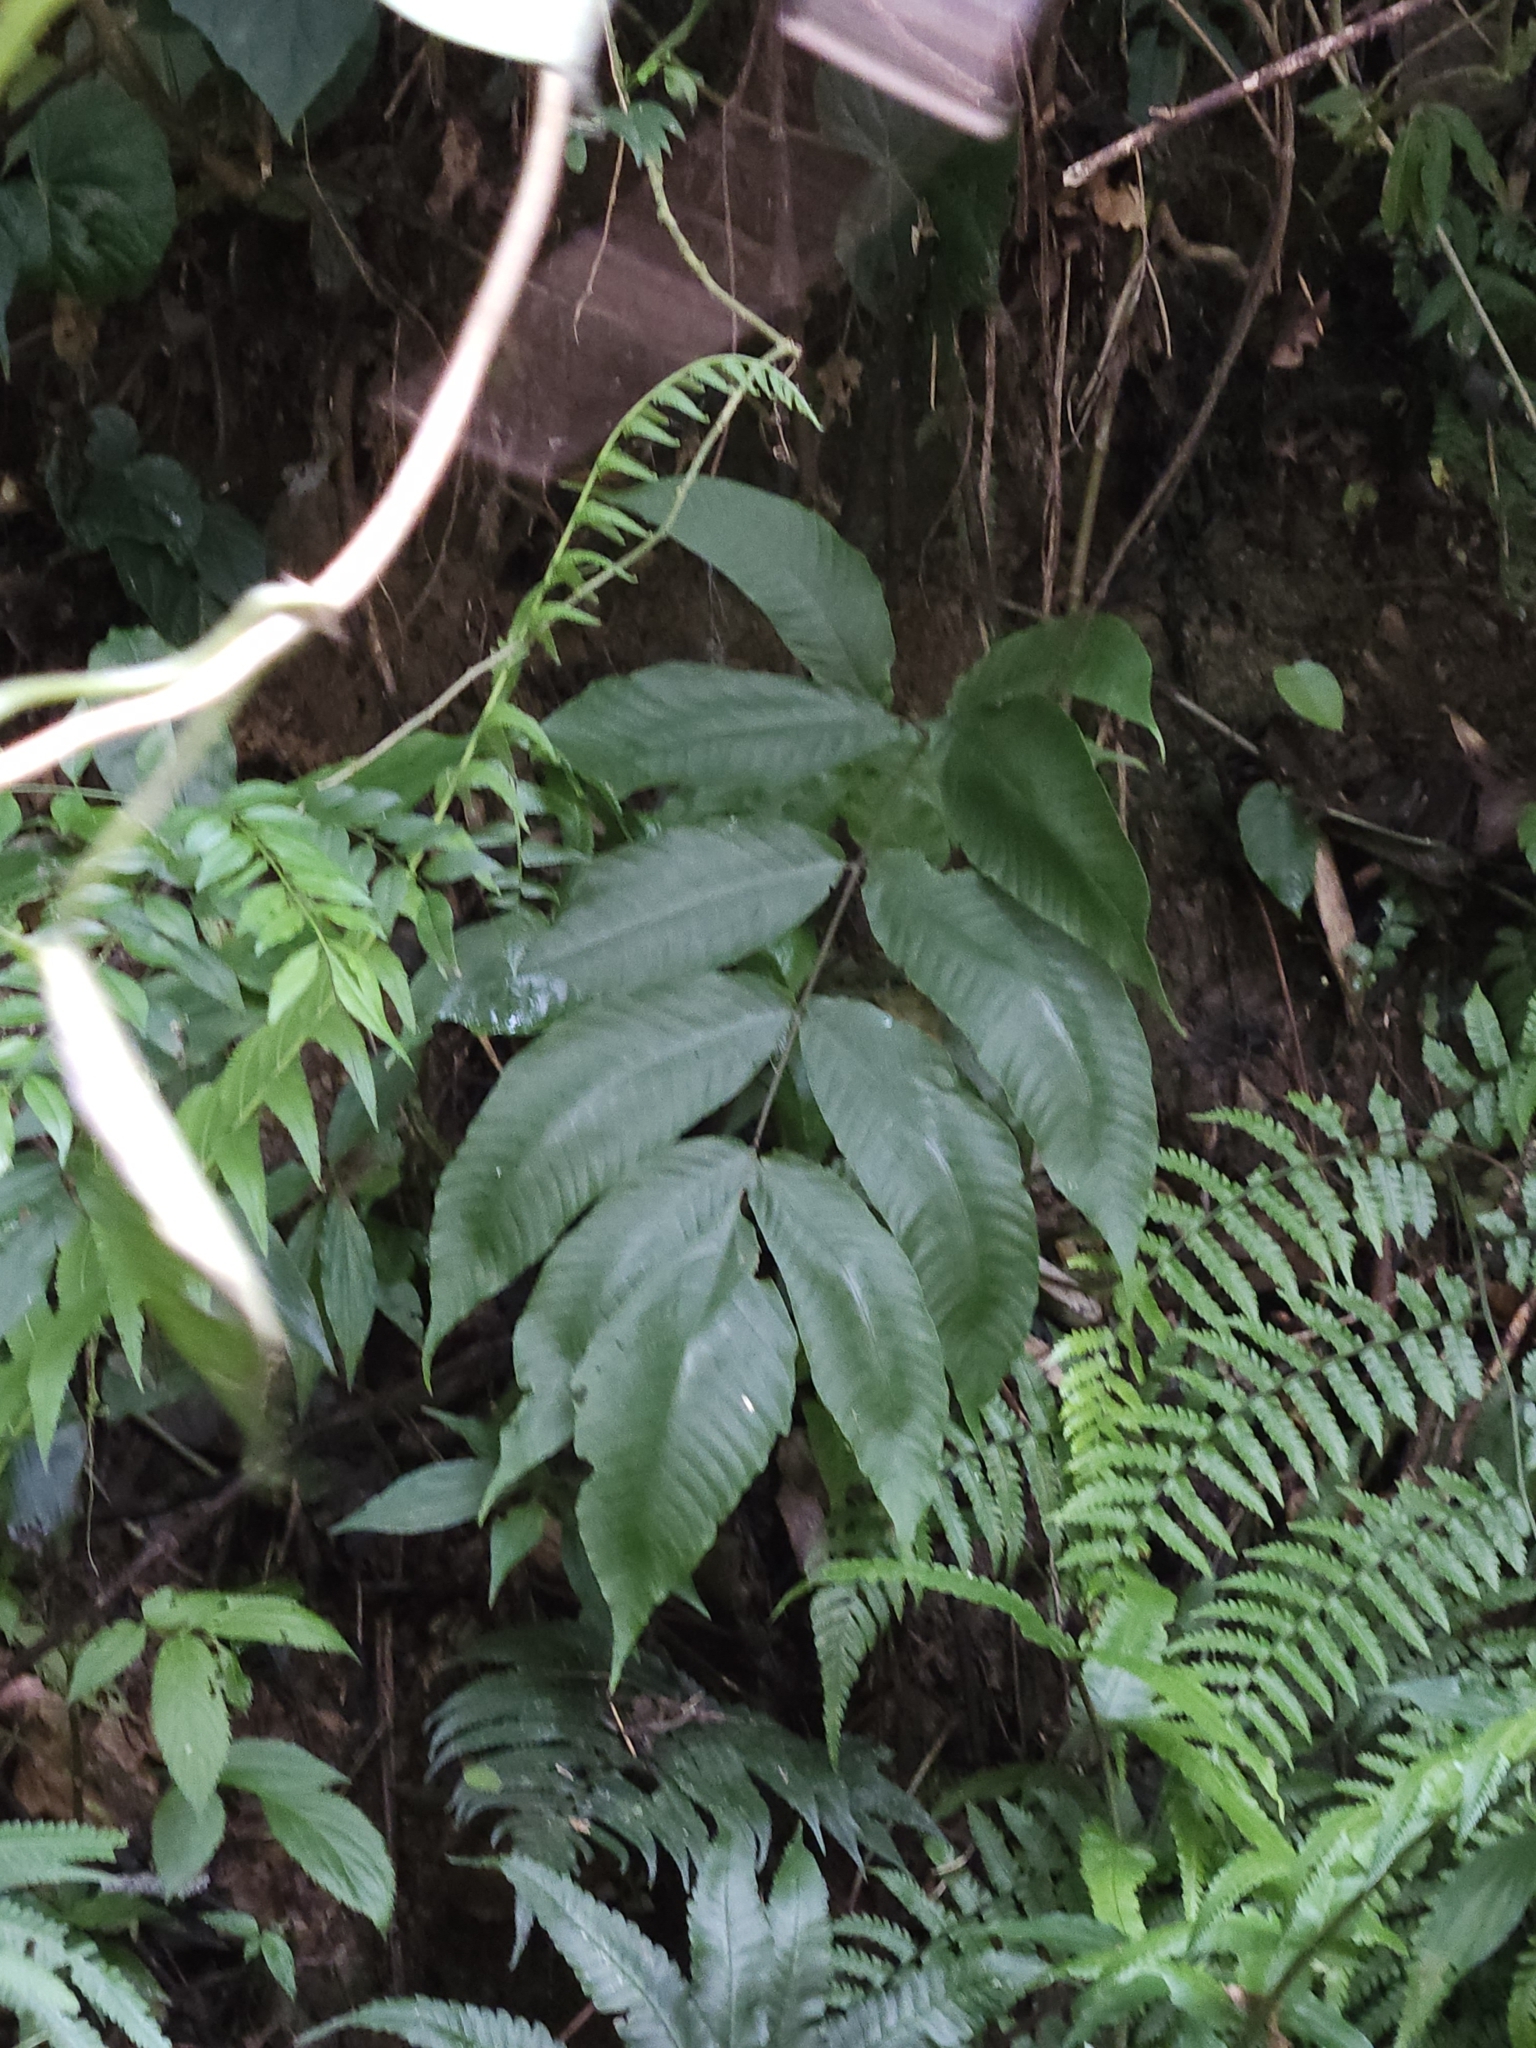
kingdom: Plantae
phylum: Tracheophyta
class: Polypodiopsida
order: Polypodiales
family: Tectariaceae
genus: Tectaria
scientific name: Tectaria polymorpha
